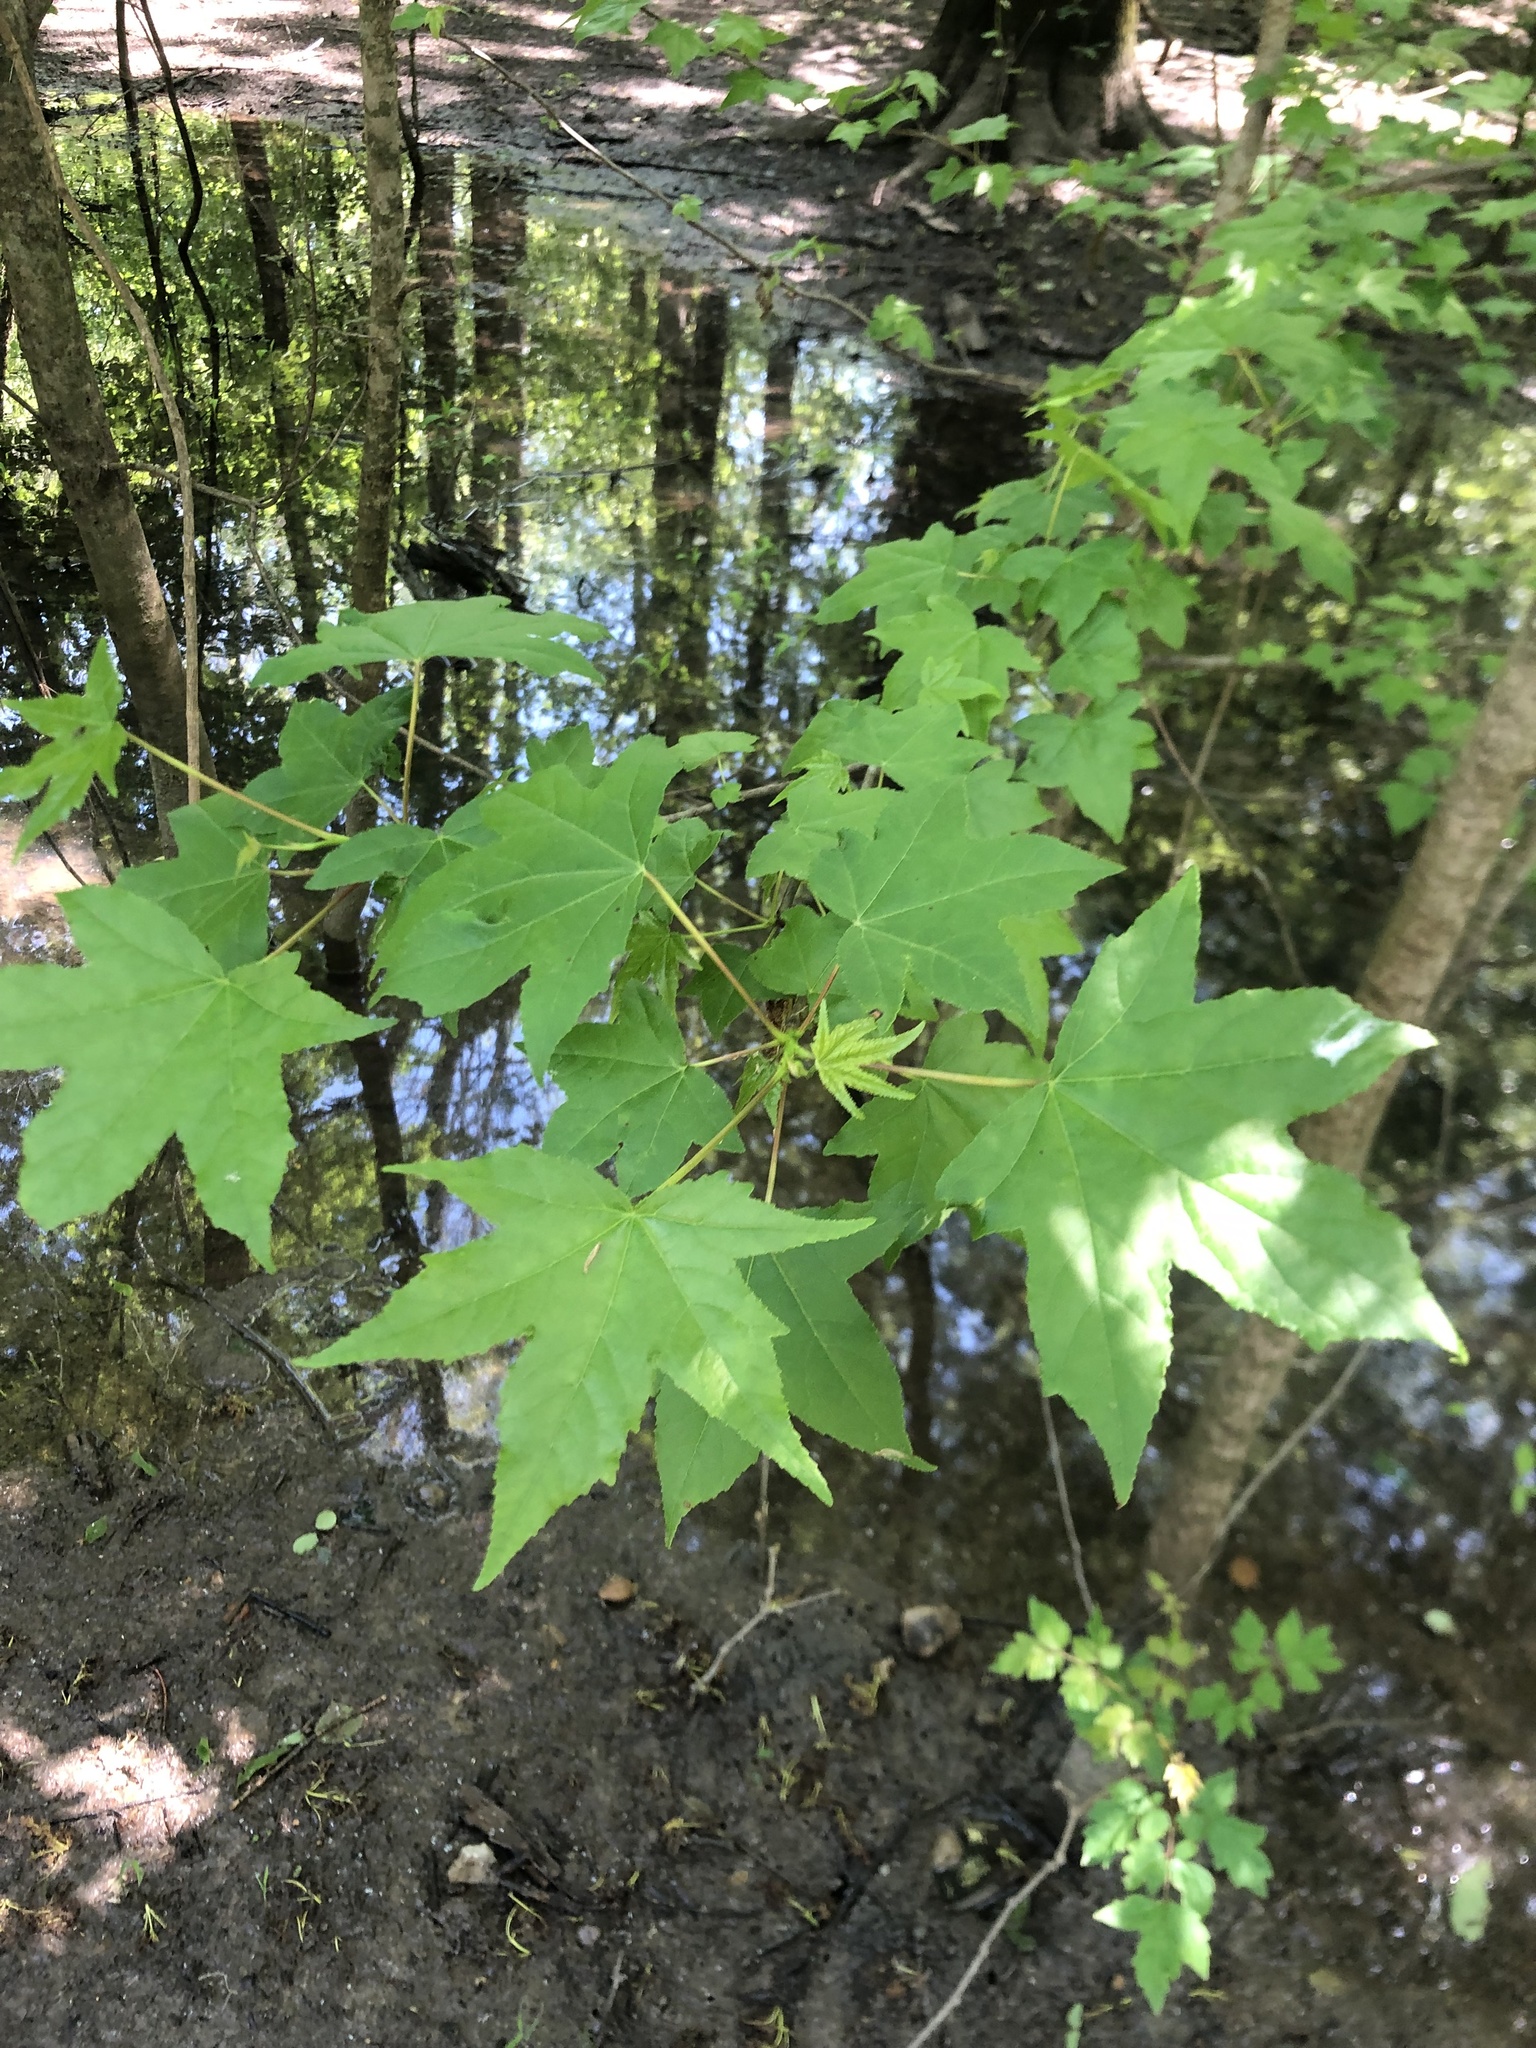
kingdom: Plantae
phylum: Tracheophyta
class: Magnoliopsida
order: Saxifragales
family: Altingiaceae
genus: Liquidambar
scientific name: Liquidambar styraciflua
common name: Sweet gum
